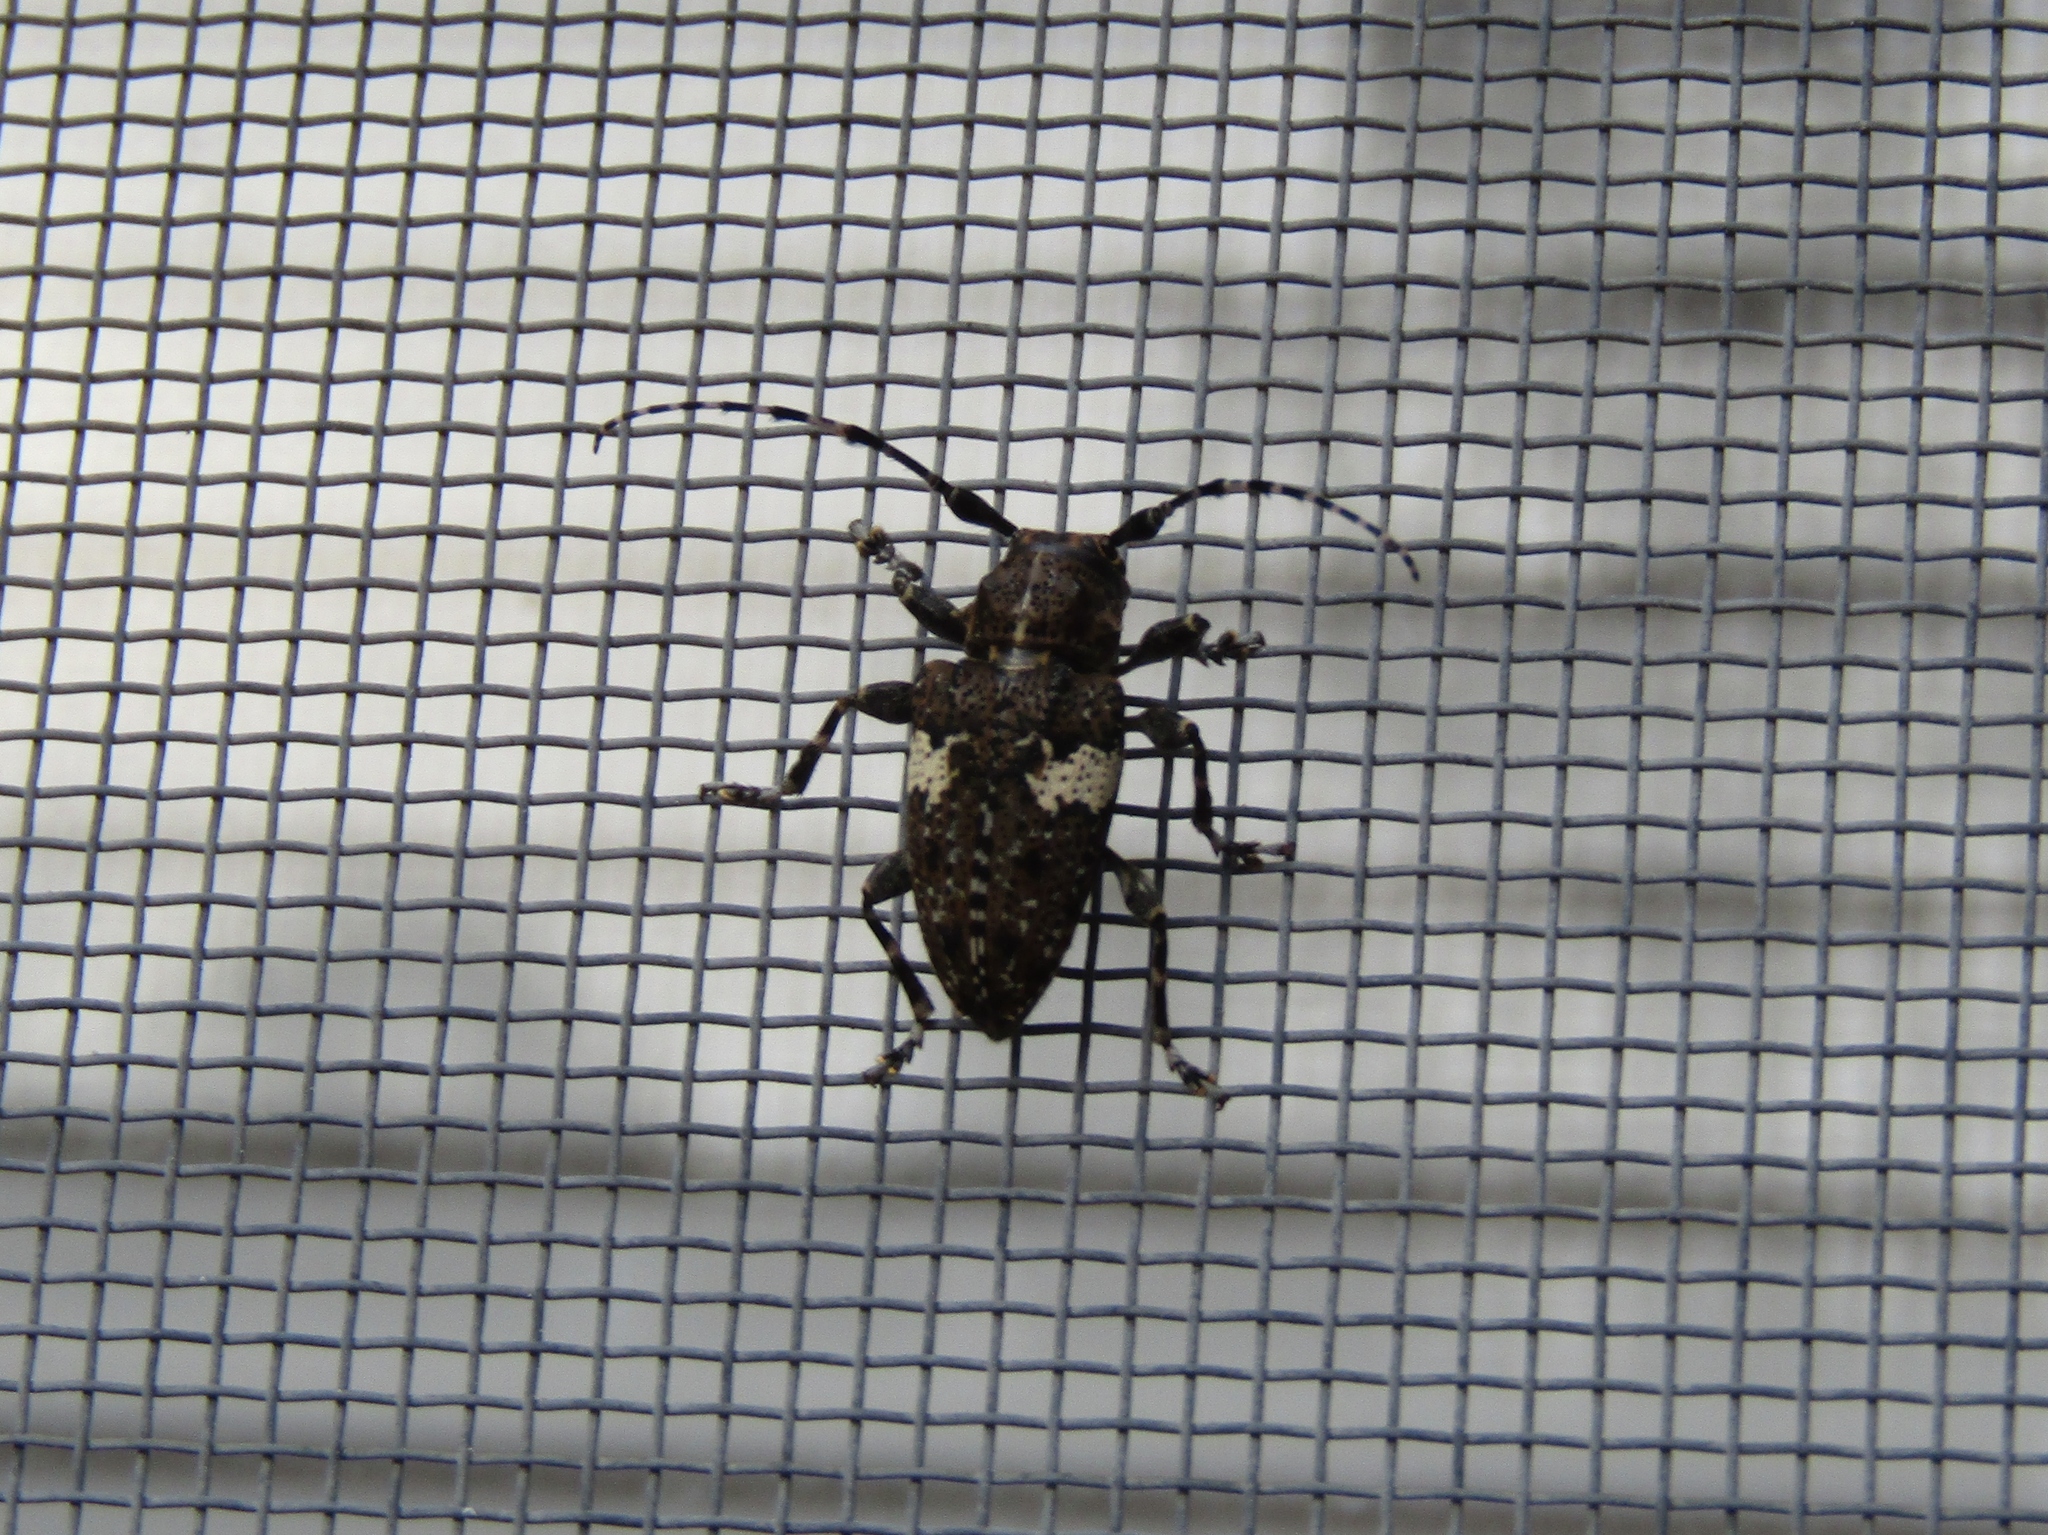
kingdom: Animalia
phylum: Arthropoda
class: Insecta
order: Coleoptera
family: Cerambycidae
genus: Acanthoderes
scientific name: Acanthoderes quadrigibba
